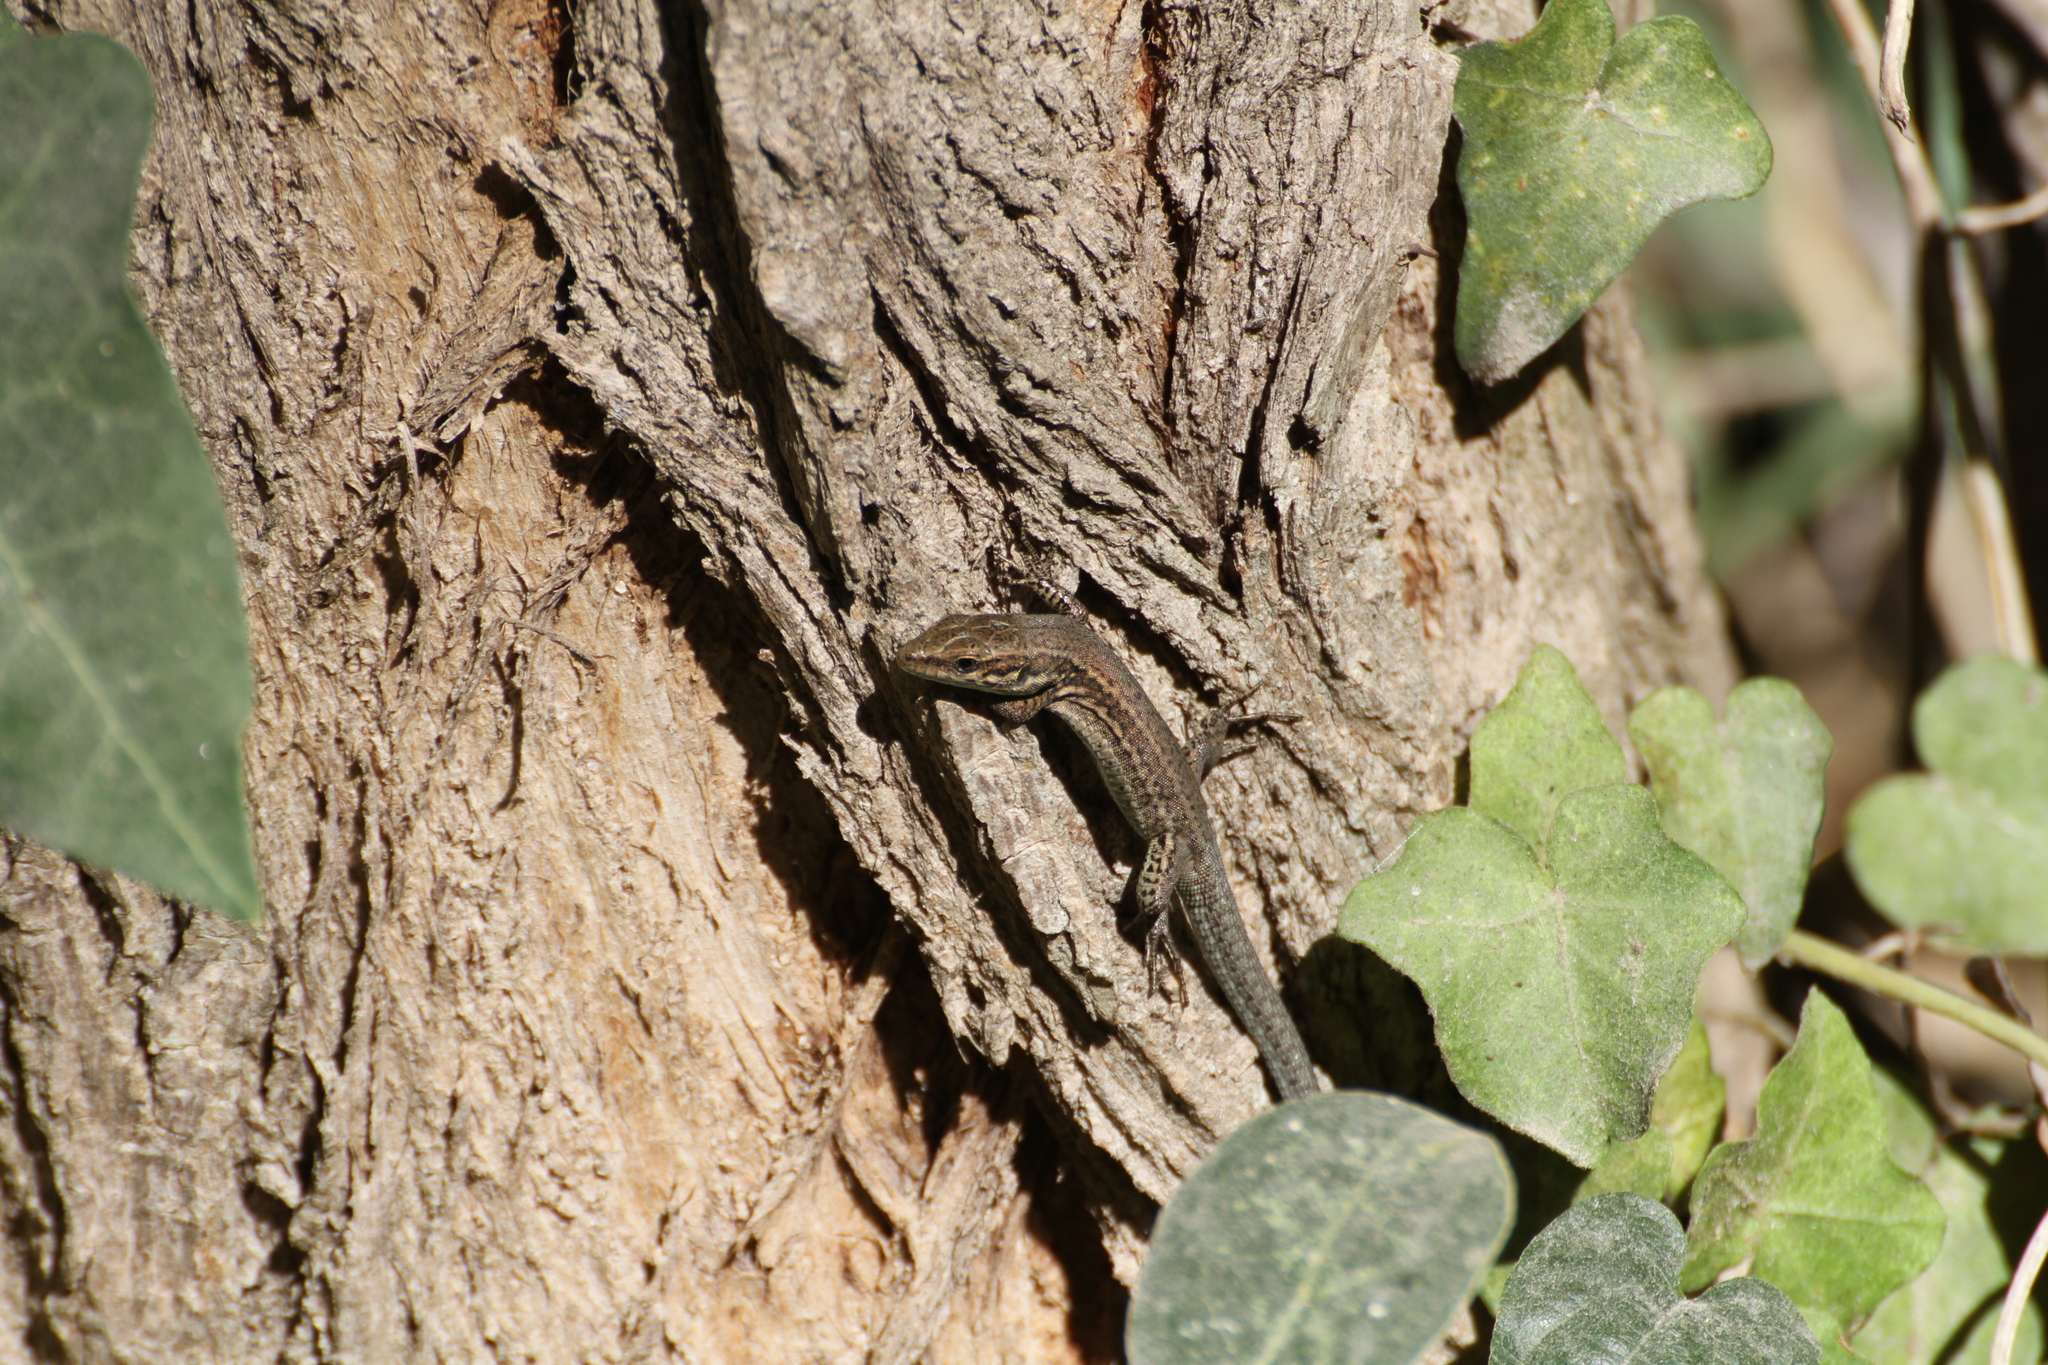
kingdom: Animalia
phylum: Chordata
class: Squamata
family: Lacertidae
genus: Podarcis
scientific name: Podarcis muralis
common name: Common wall lizard
